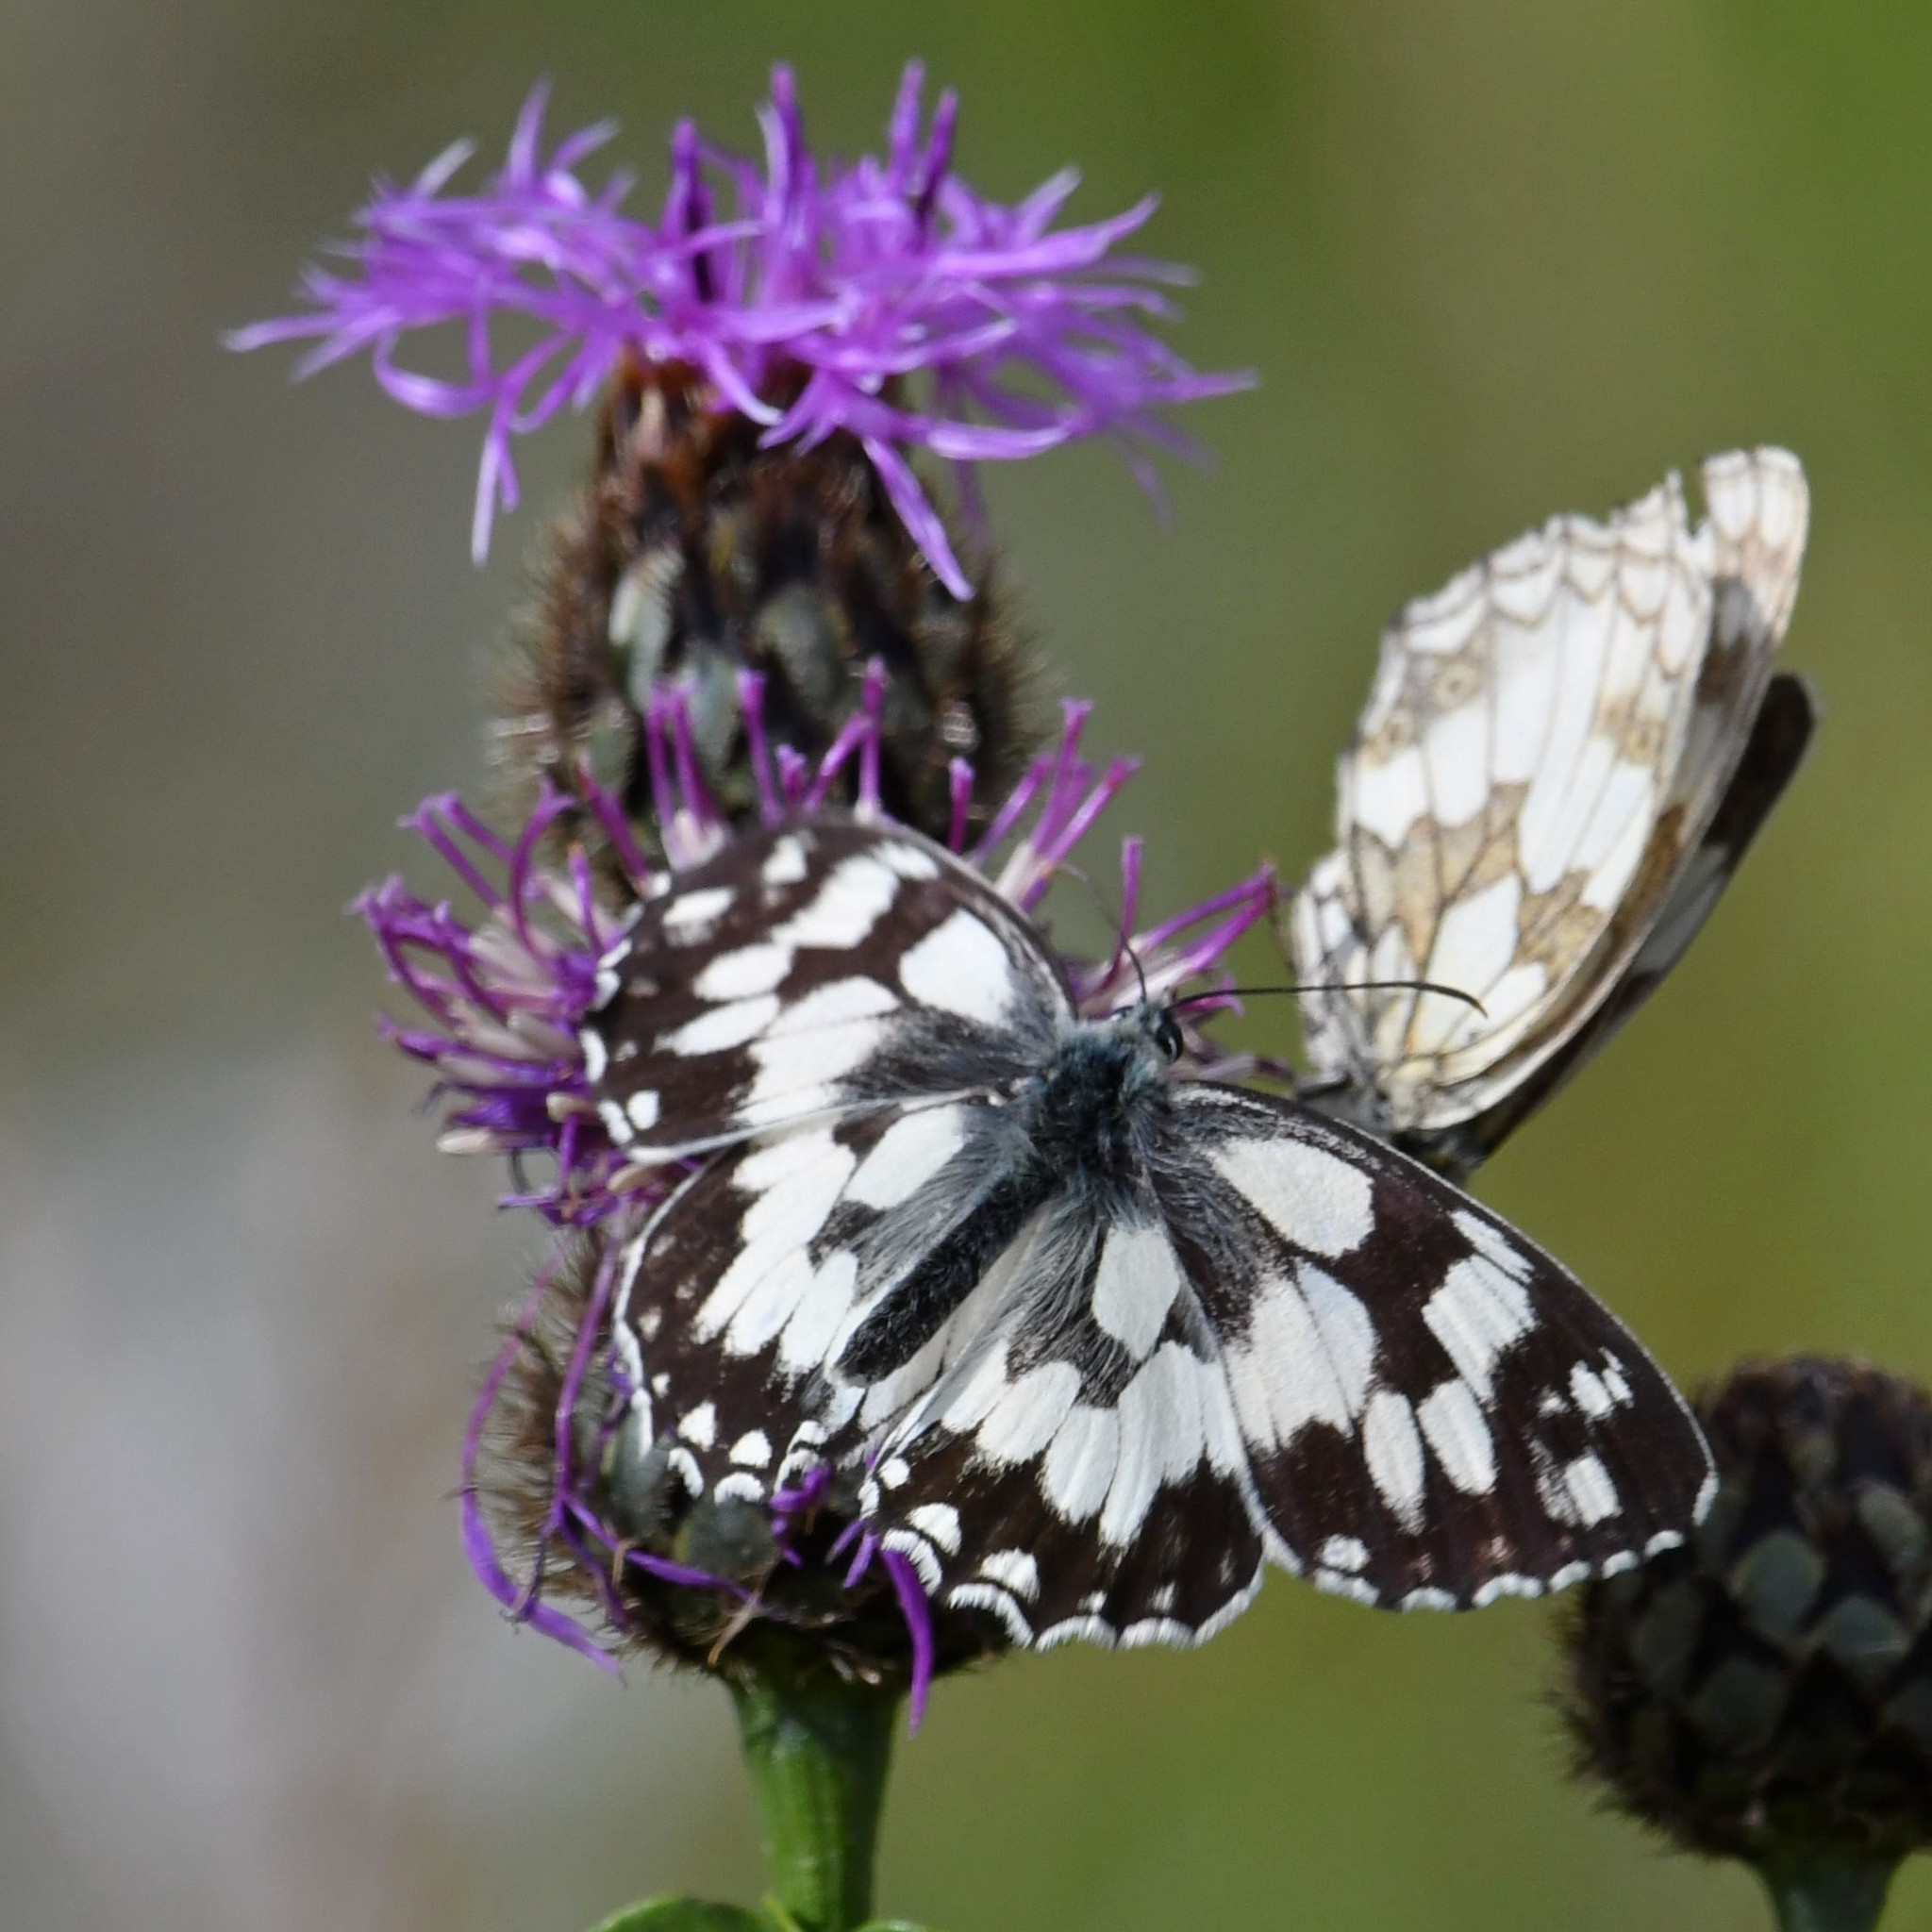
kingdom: Animalia
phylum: Arthropoda
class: Insecta
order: Lepidoptera
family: Nymphalidae
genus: Melanargia
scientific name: Melanargia galathea
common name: Marbled white
